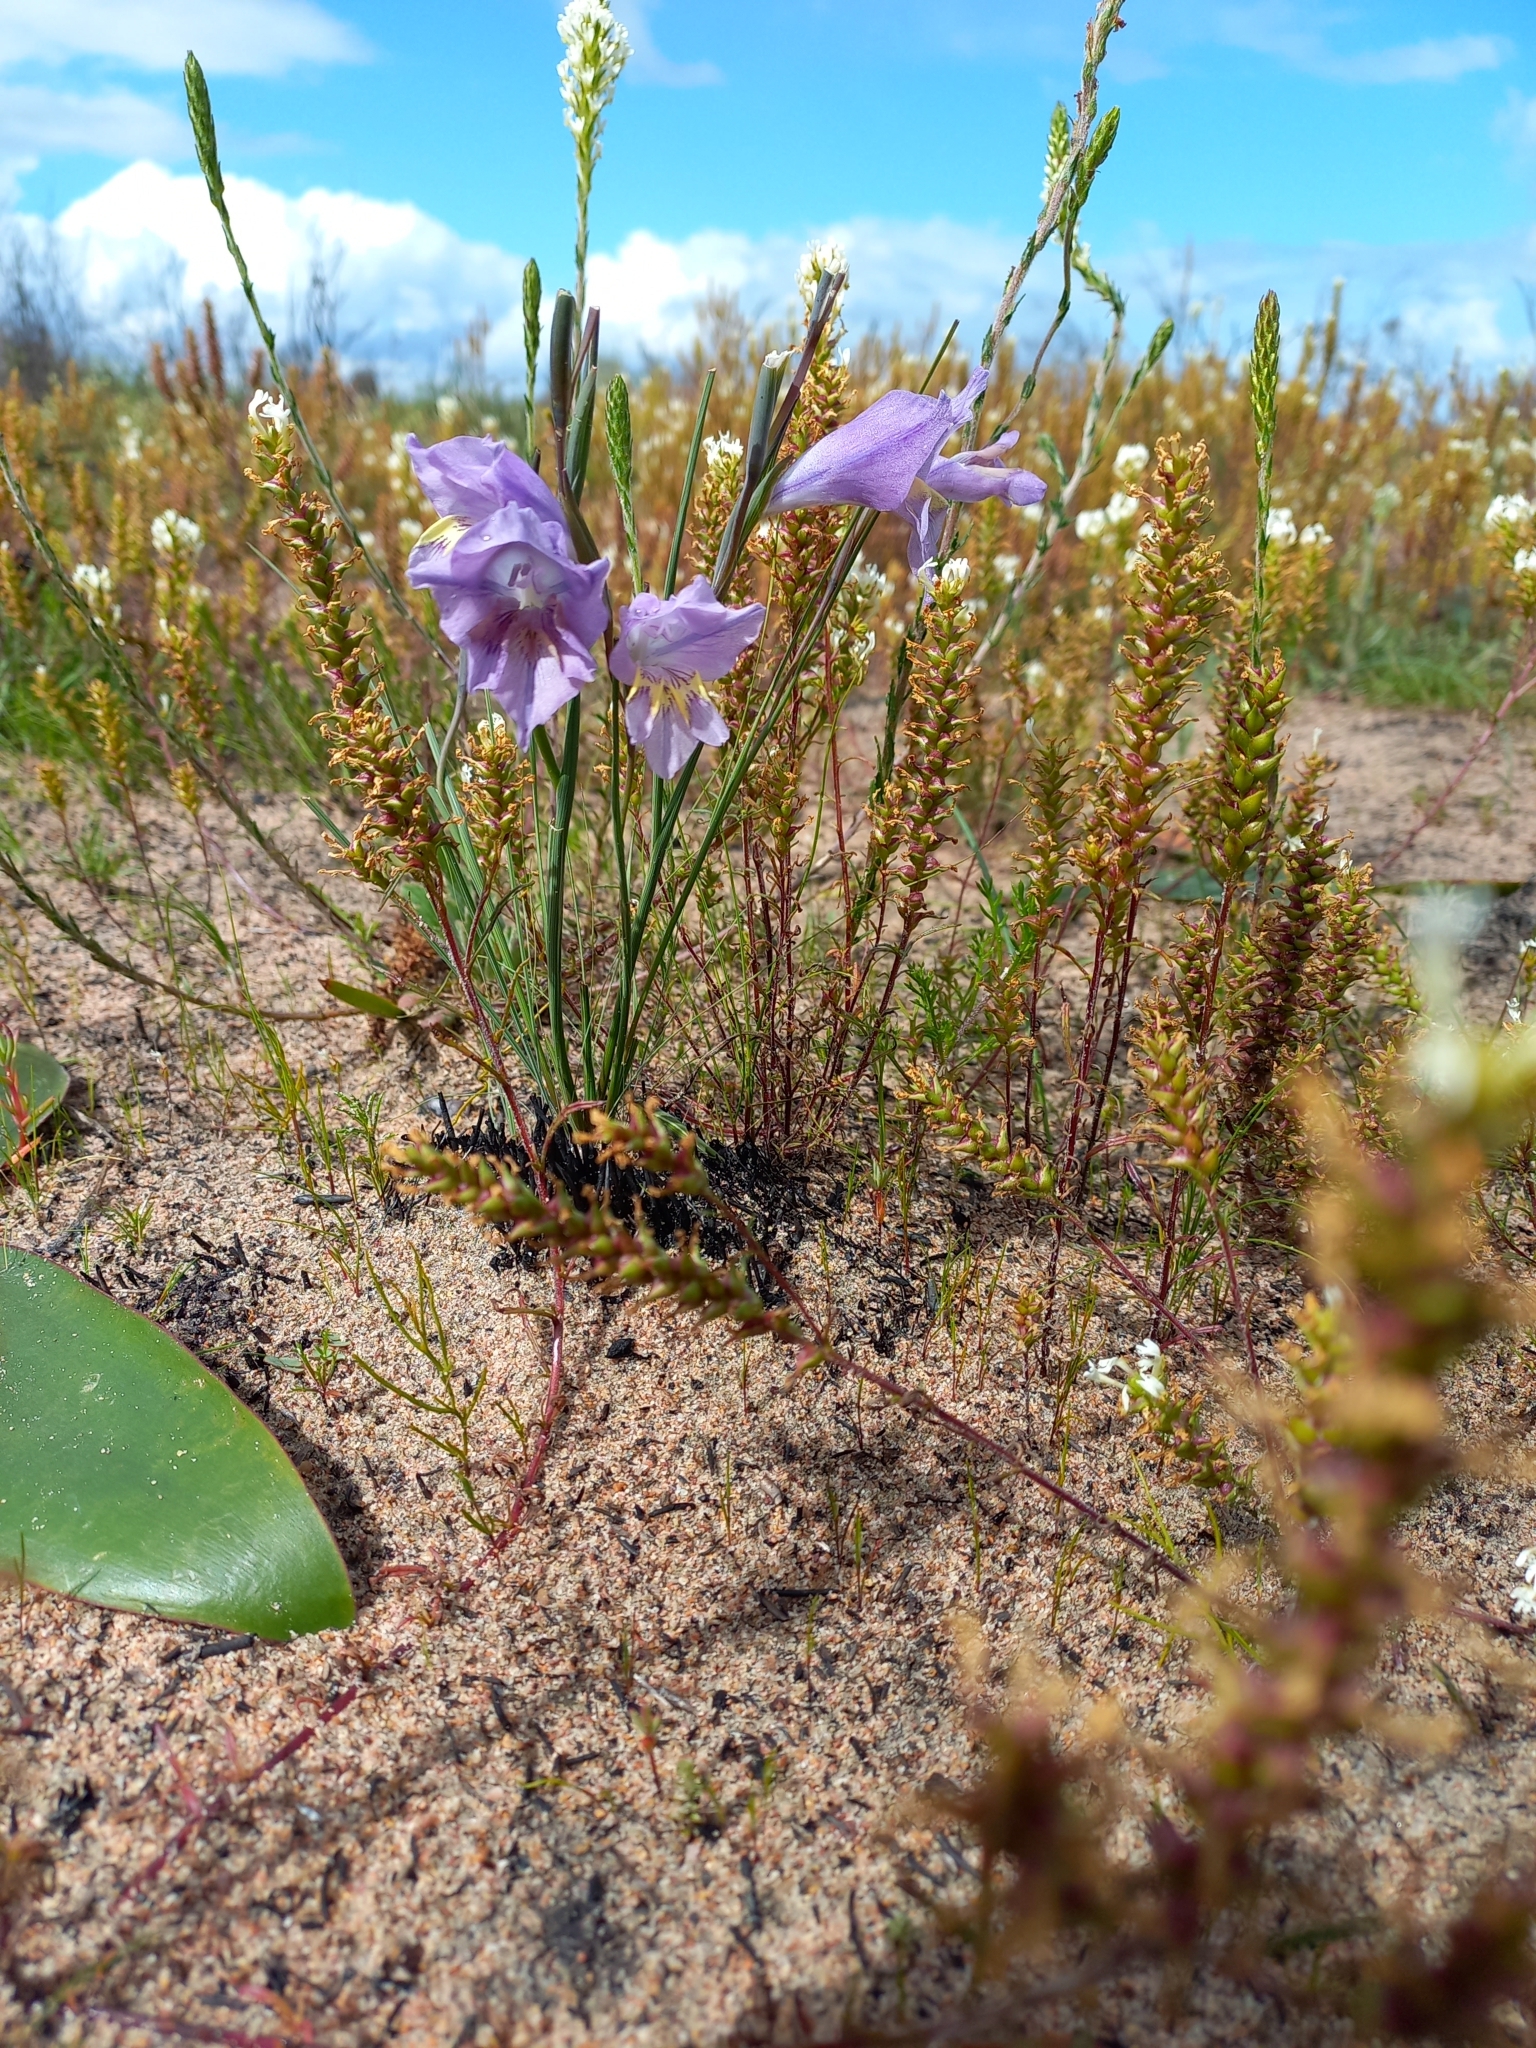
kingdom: Plantae
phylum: Tracheophyta
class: Liliopsida
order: Asparagales
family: Iridaceae
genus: Gladiolus
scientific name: Gladiolus carinatus
